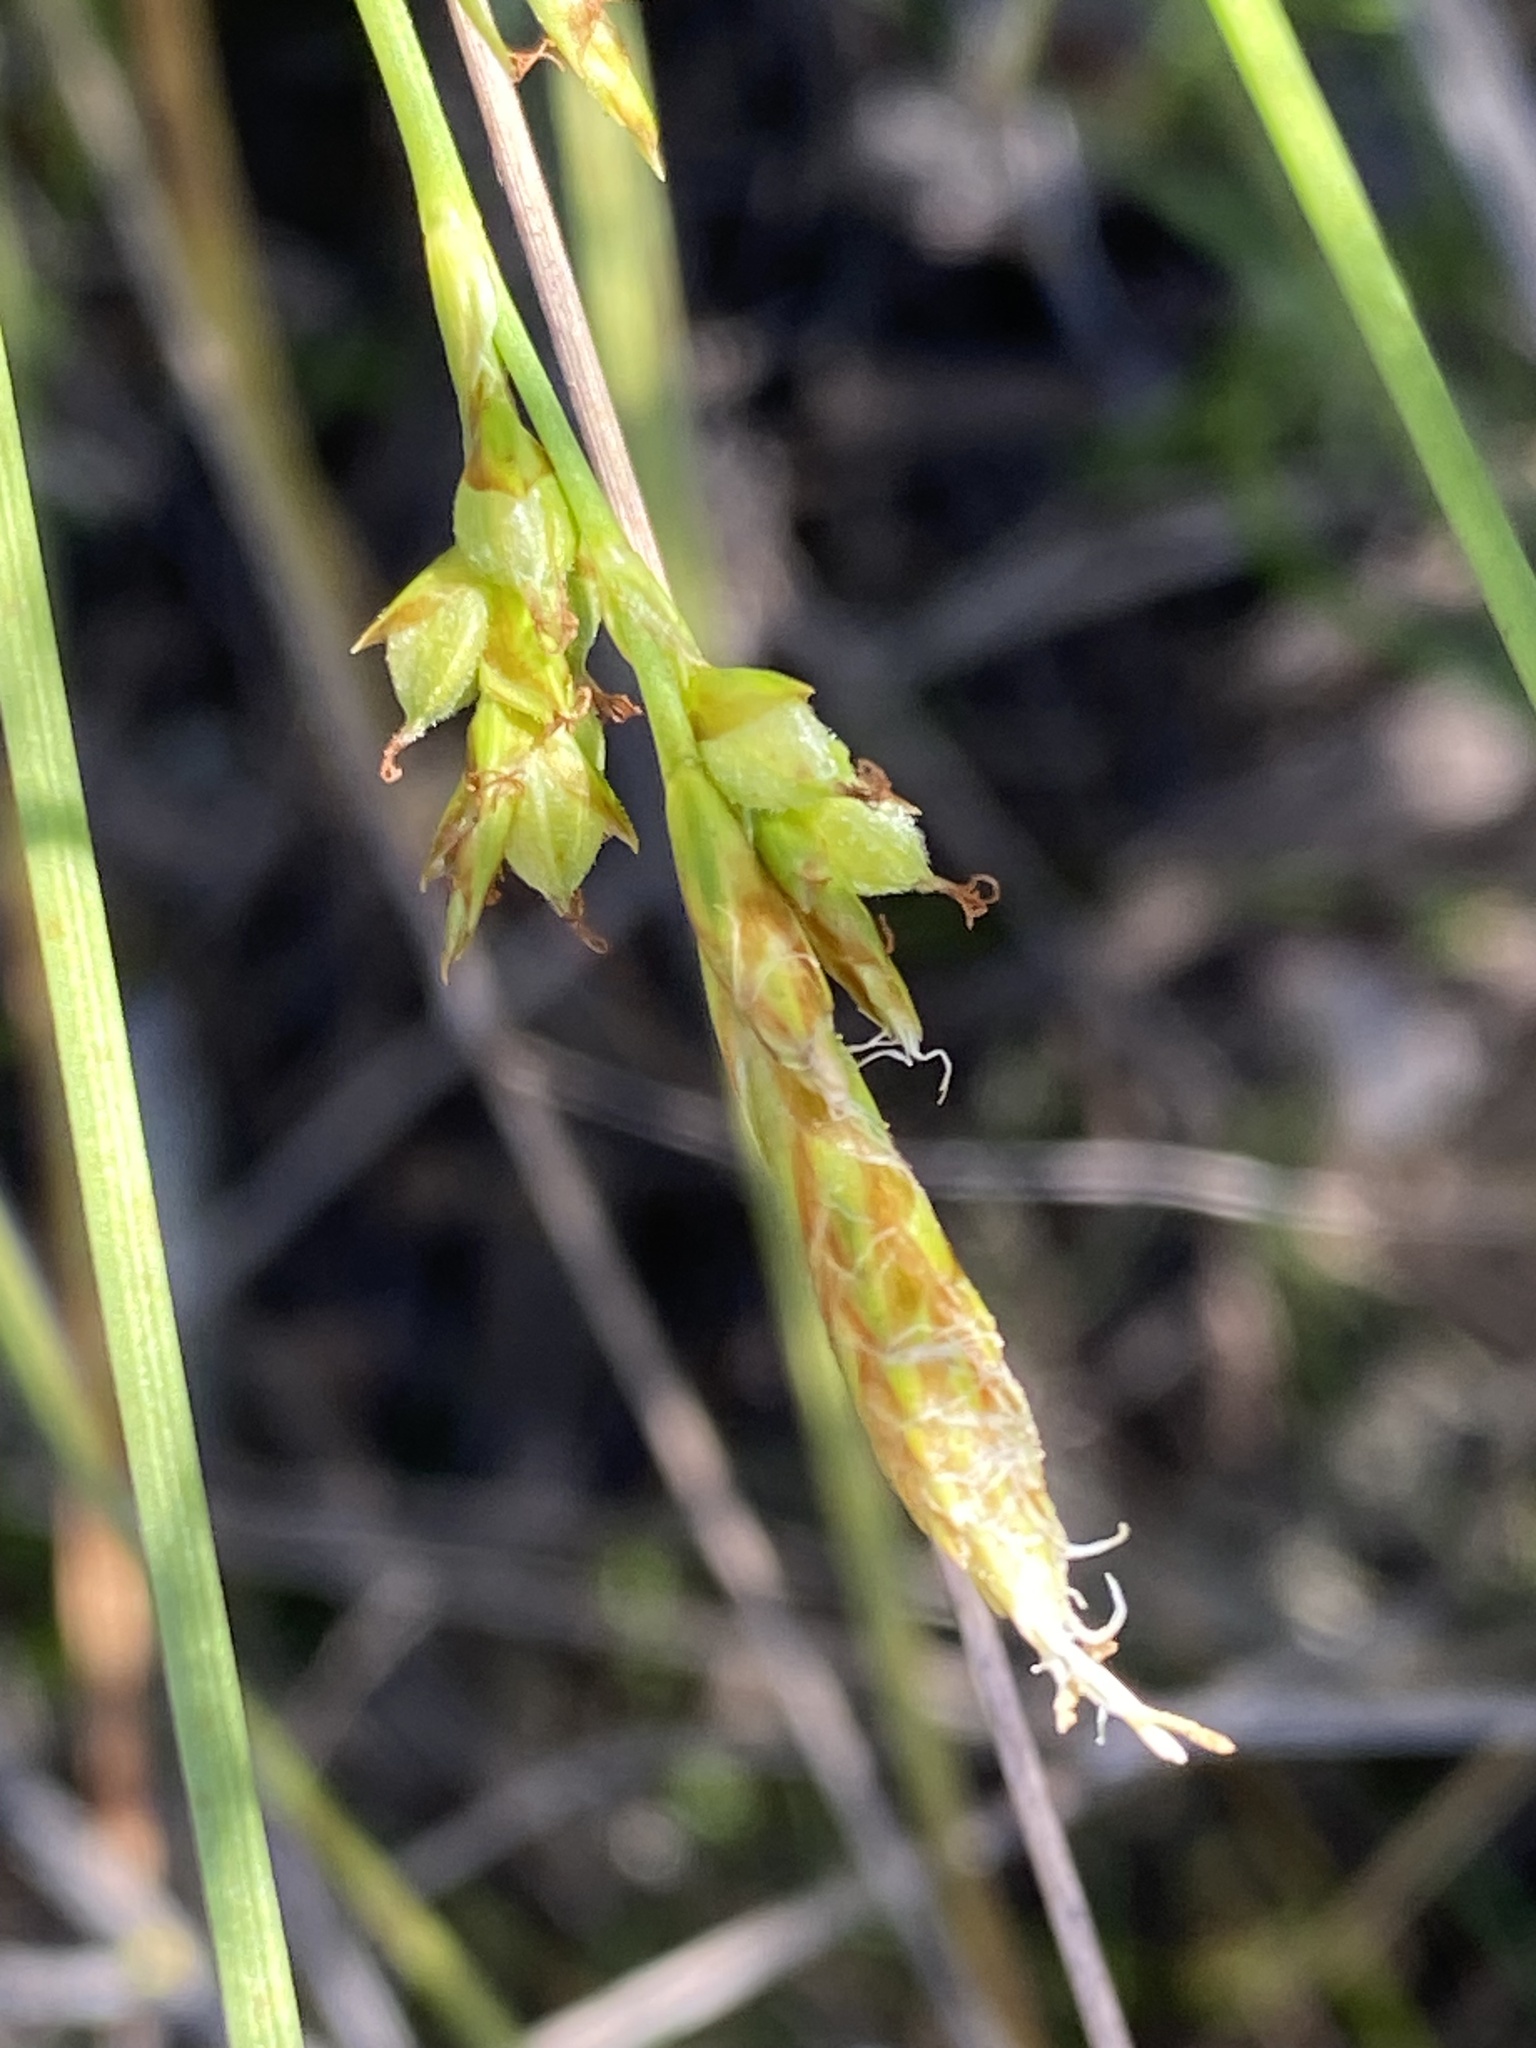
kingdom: Plantae
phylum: Tracheophyta
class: Liliopsida
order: Poales
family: Cyperaceae
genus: Carex
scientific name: Carex triquetra
